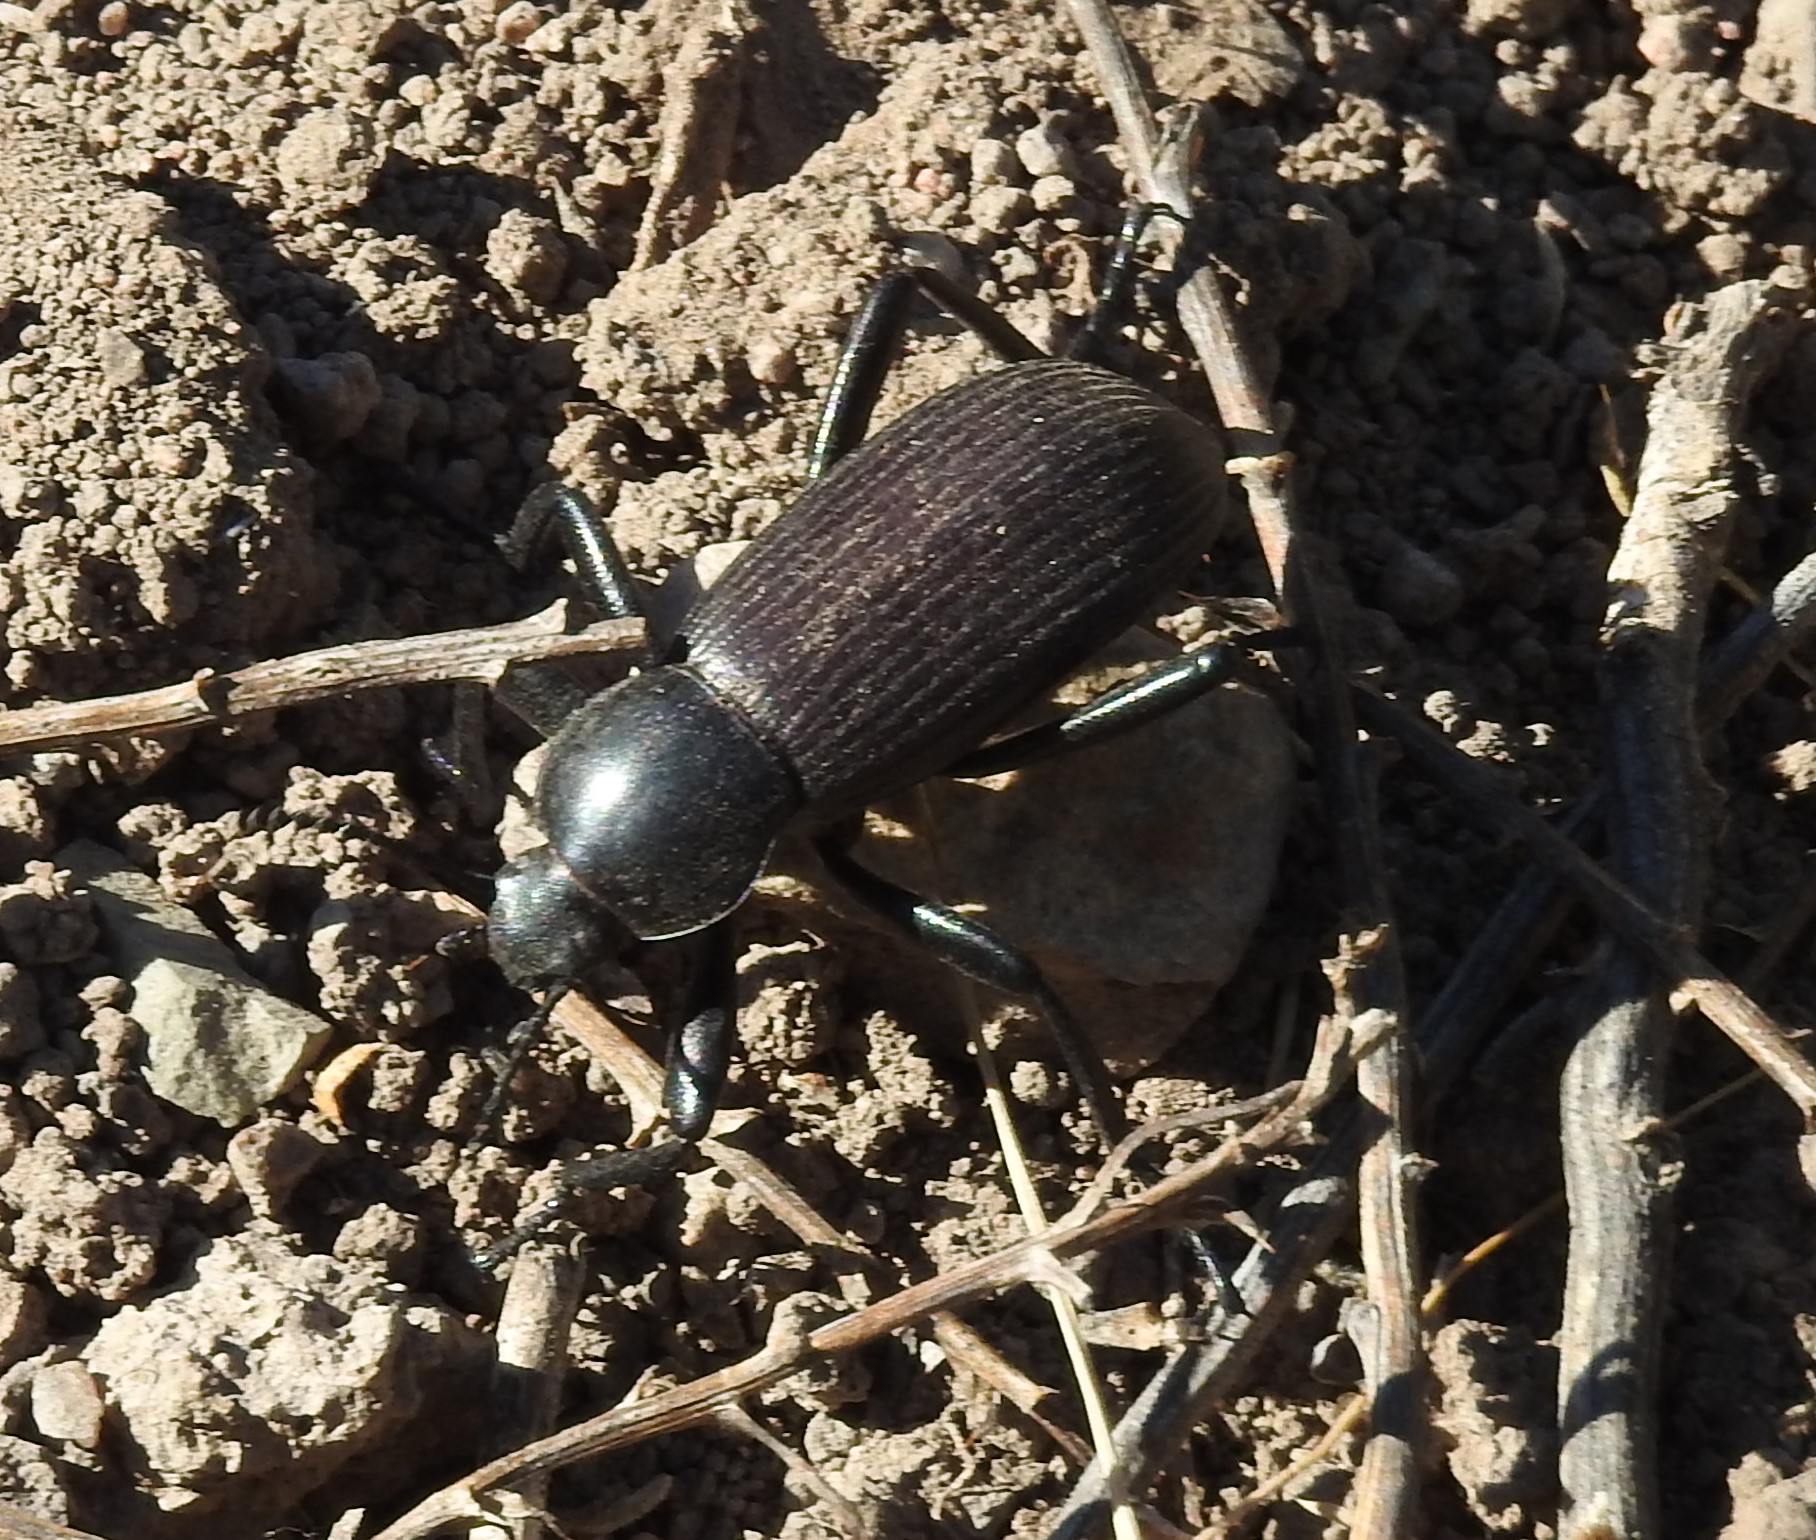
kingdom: Animalia
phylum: Arthropoda
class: Insecta
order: Coleoptera
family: Tenebrionidae
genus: Eleodes
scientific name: Eleodes obscura
